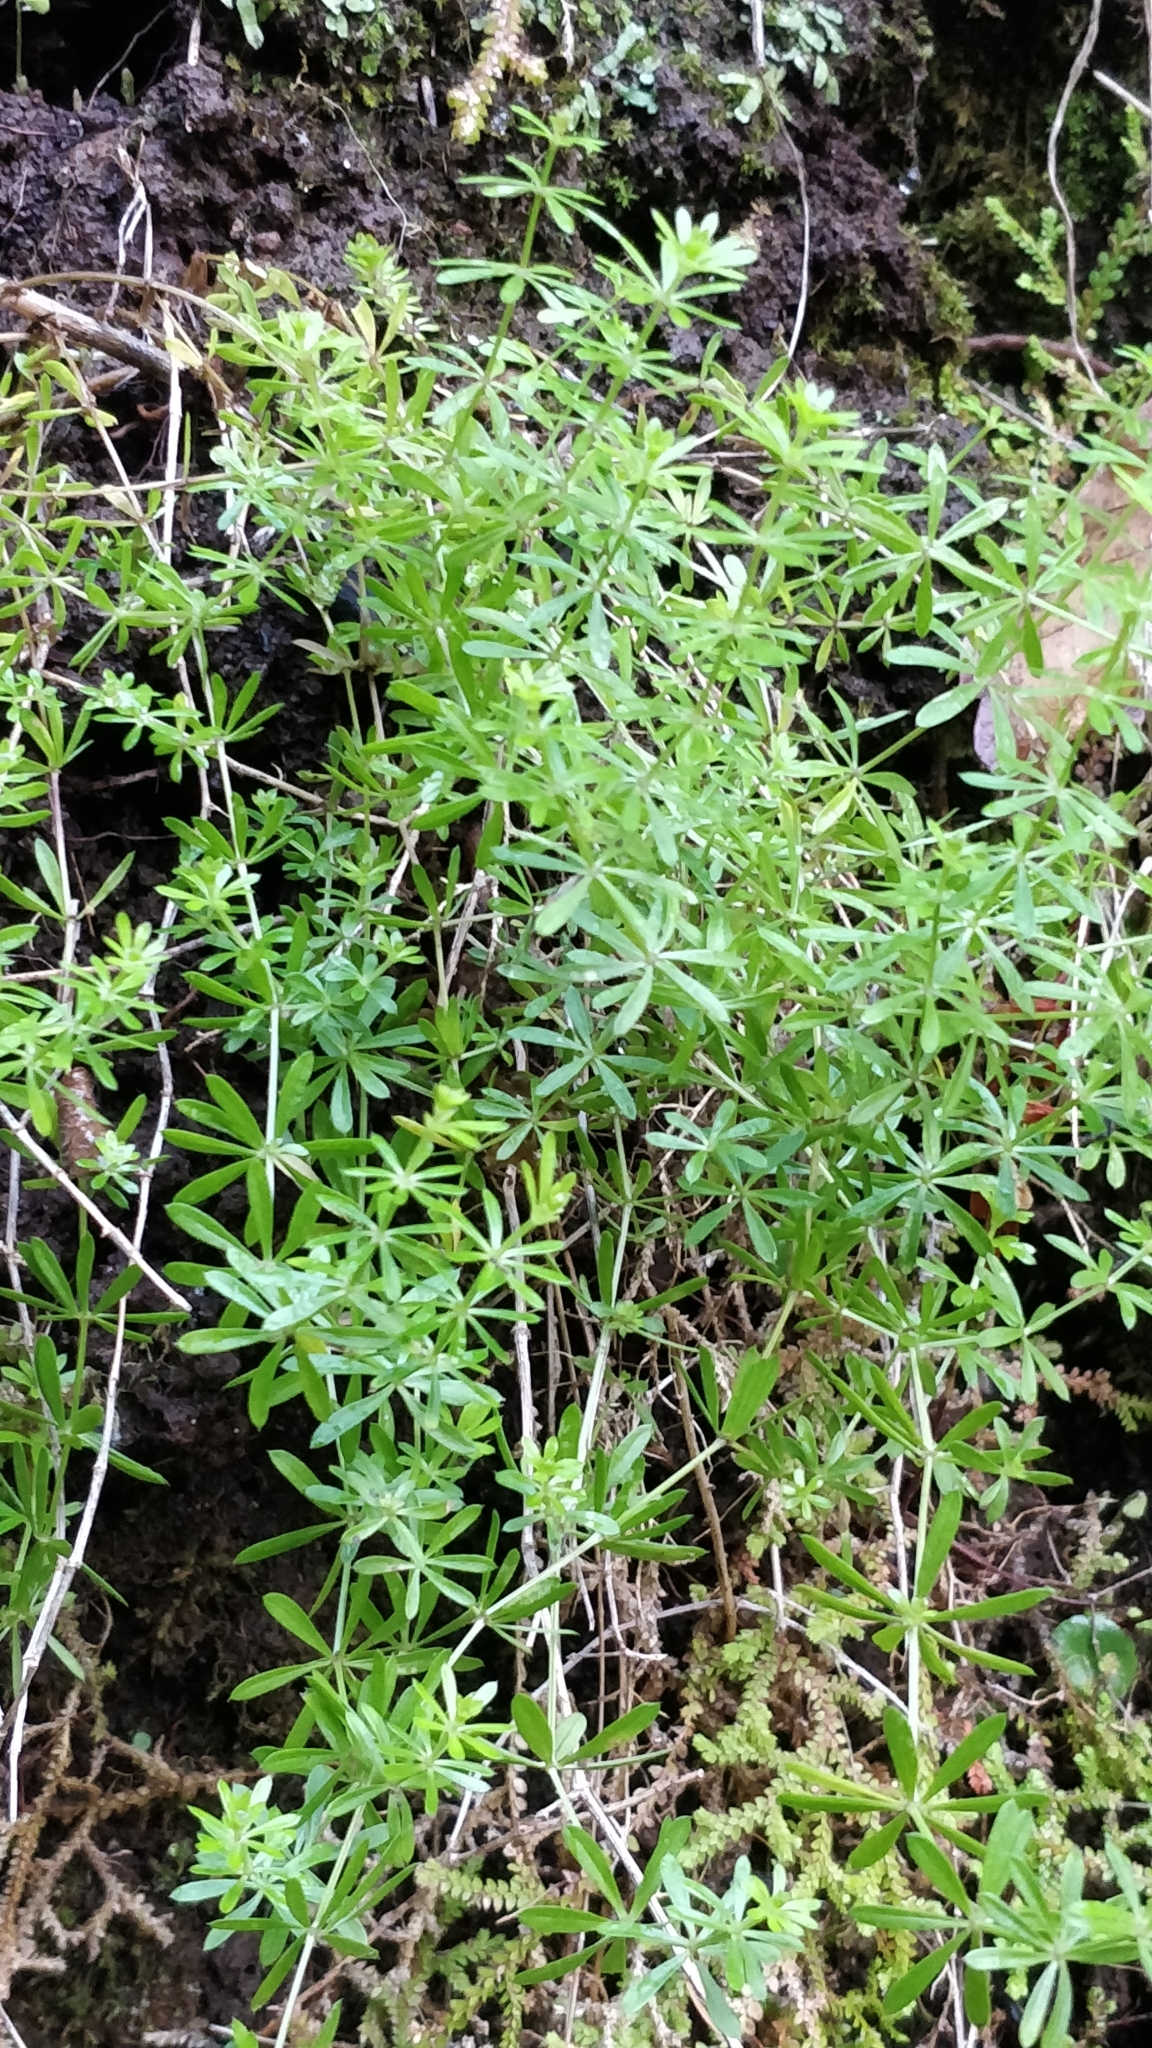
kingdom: Plantae
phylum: Tracheophyta
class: Magnoliopsida
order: Gentianales
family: Rubiaceae
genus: Galium
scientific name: Galium aparine
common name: Cleavers
